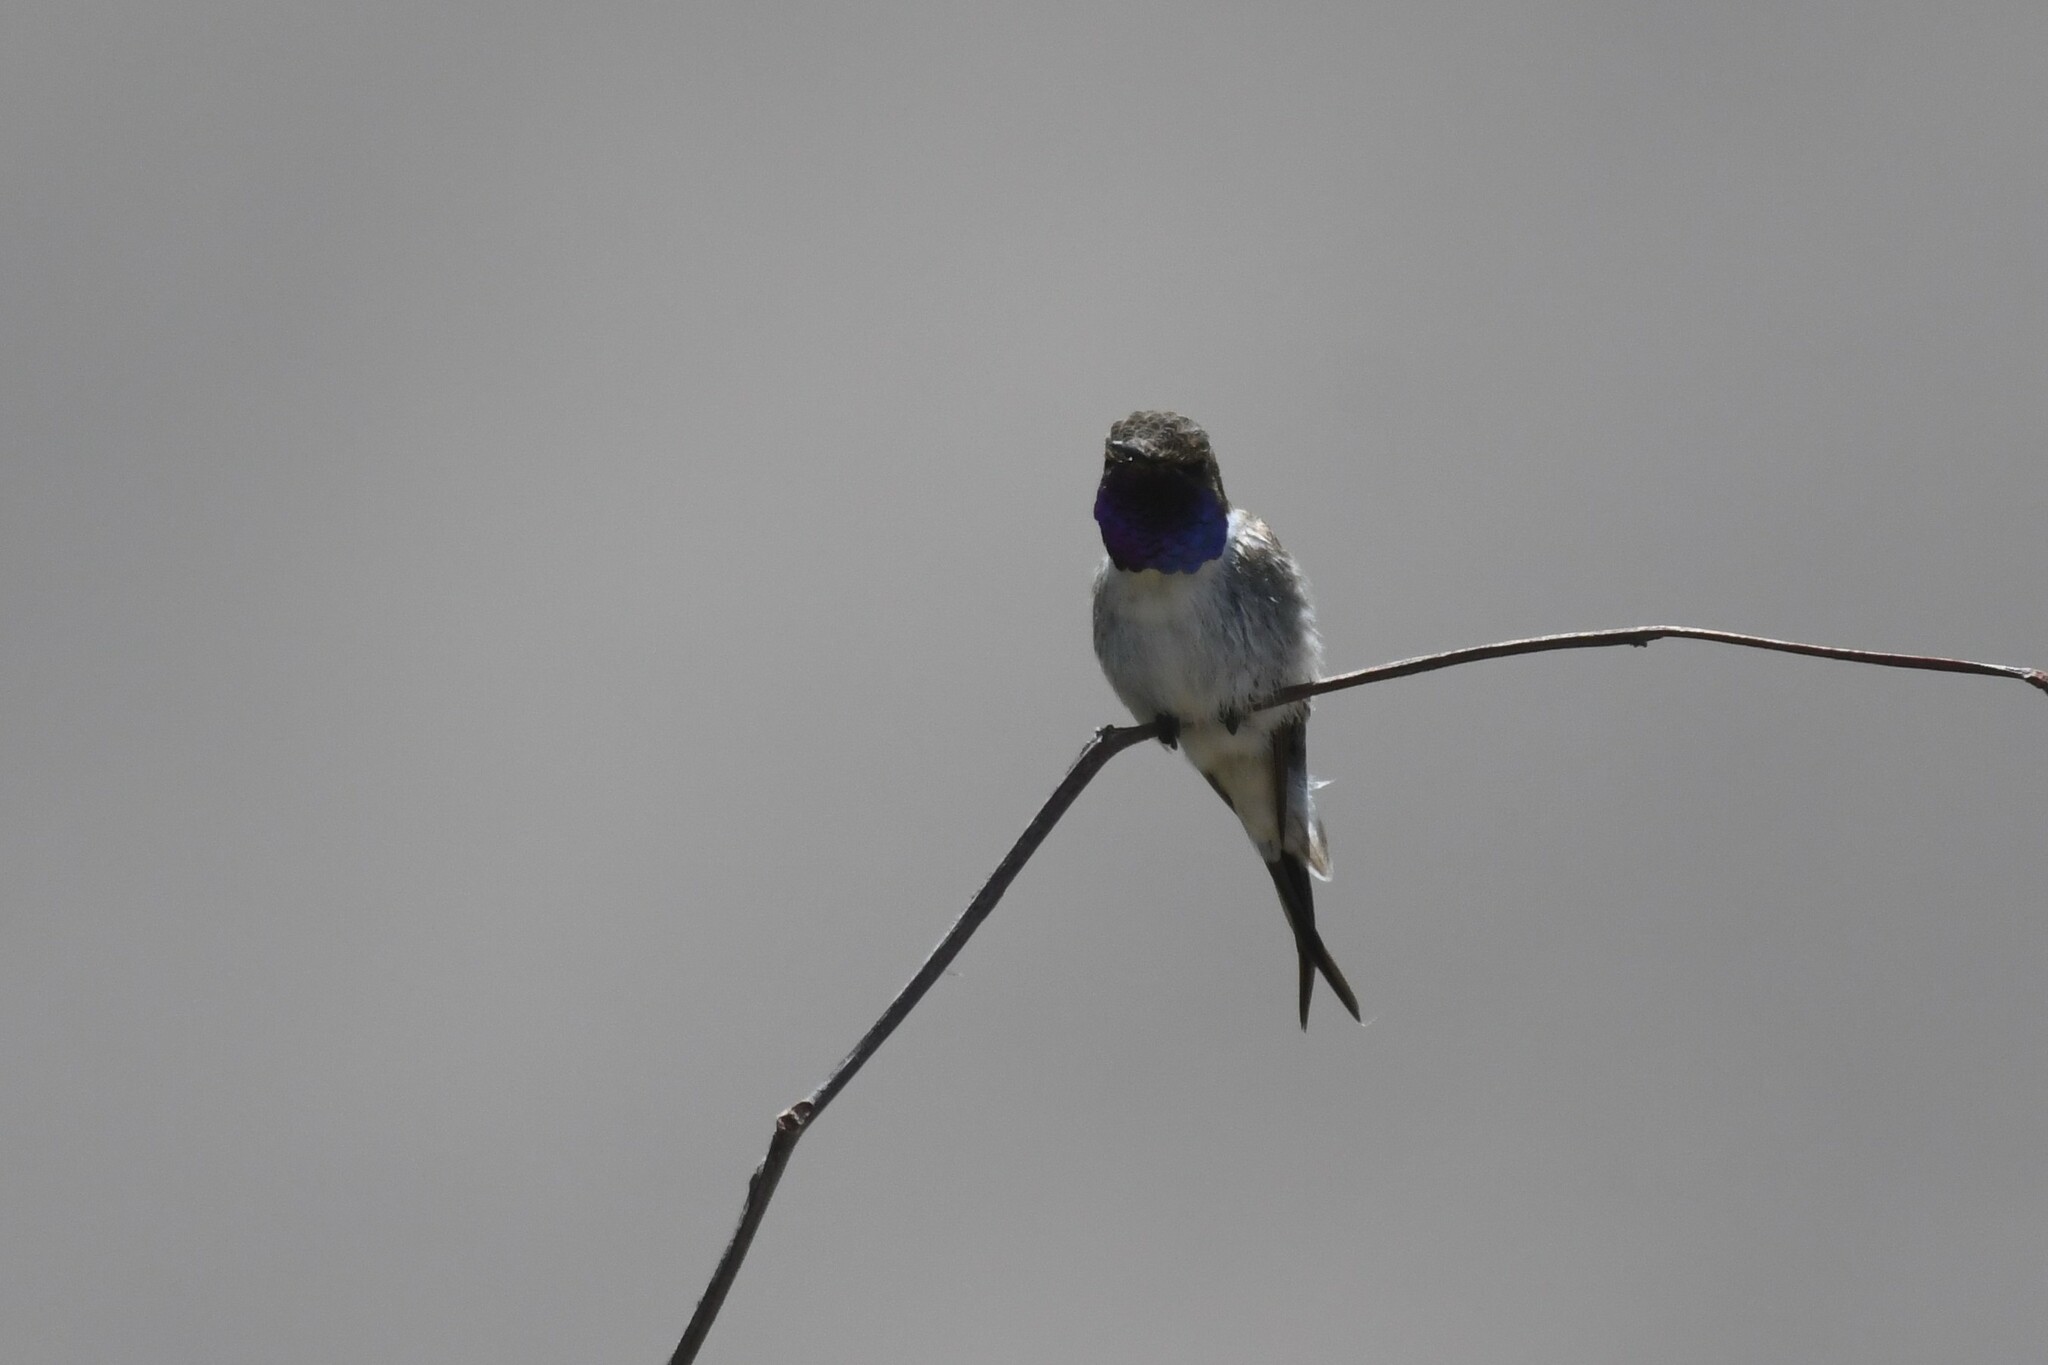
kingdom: Animalia
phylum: Chordata
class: Aves
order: Apodiformes
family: Trochilidae
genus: Eulidia
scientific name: Eulidia yarrellii
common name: Chilean woodstar
